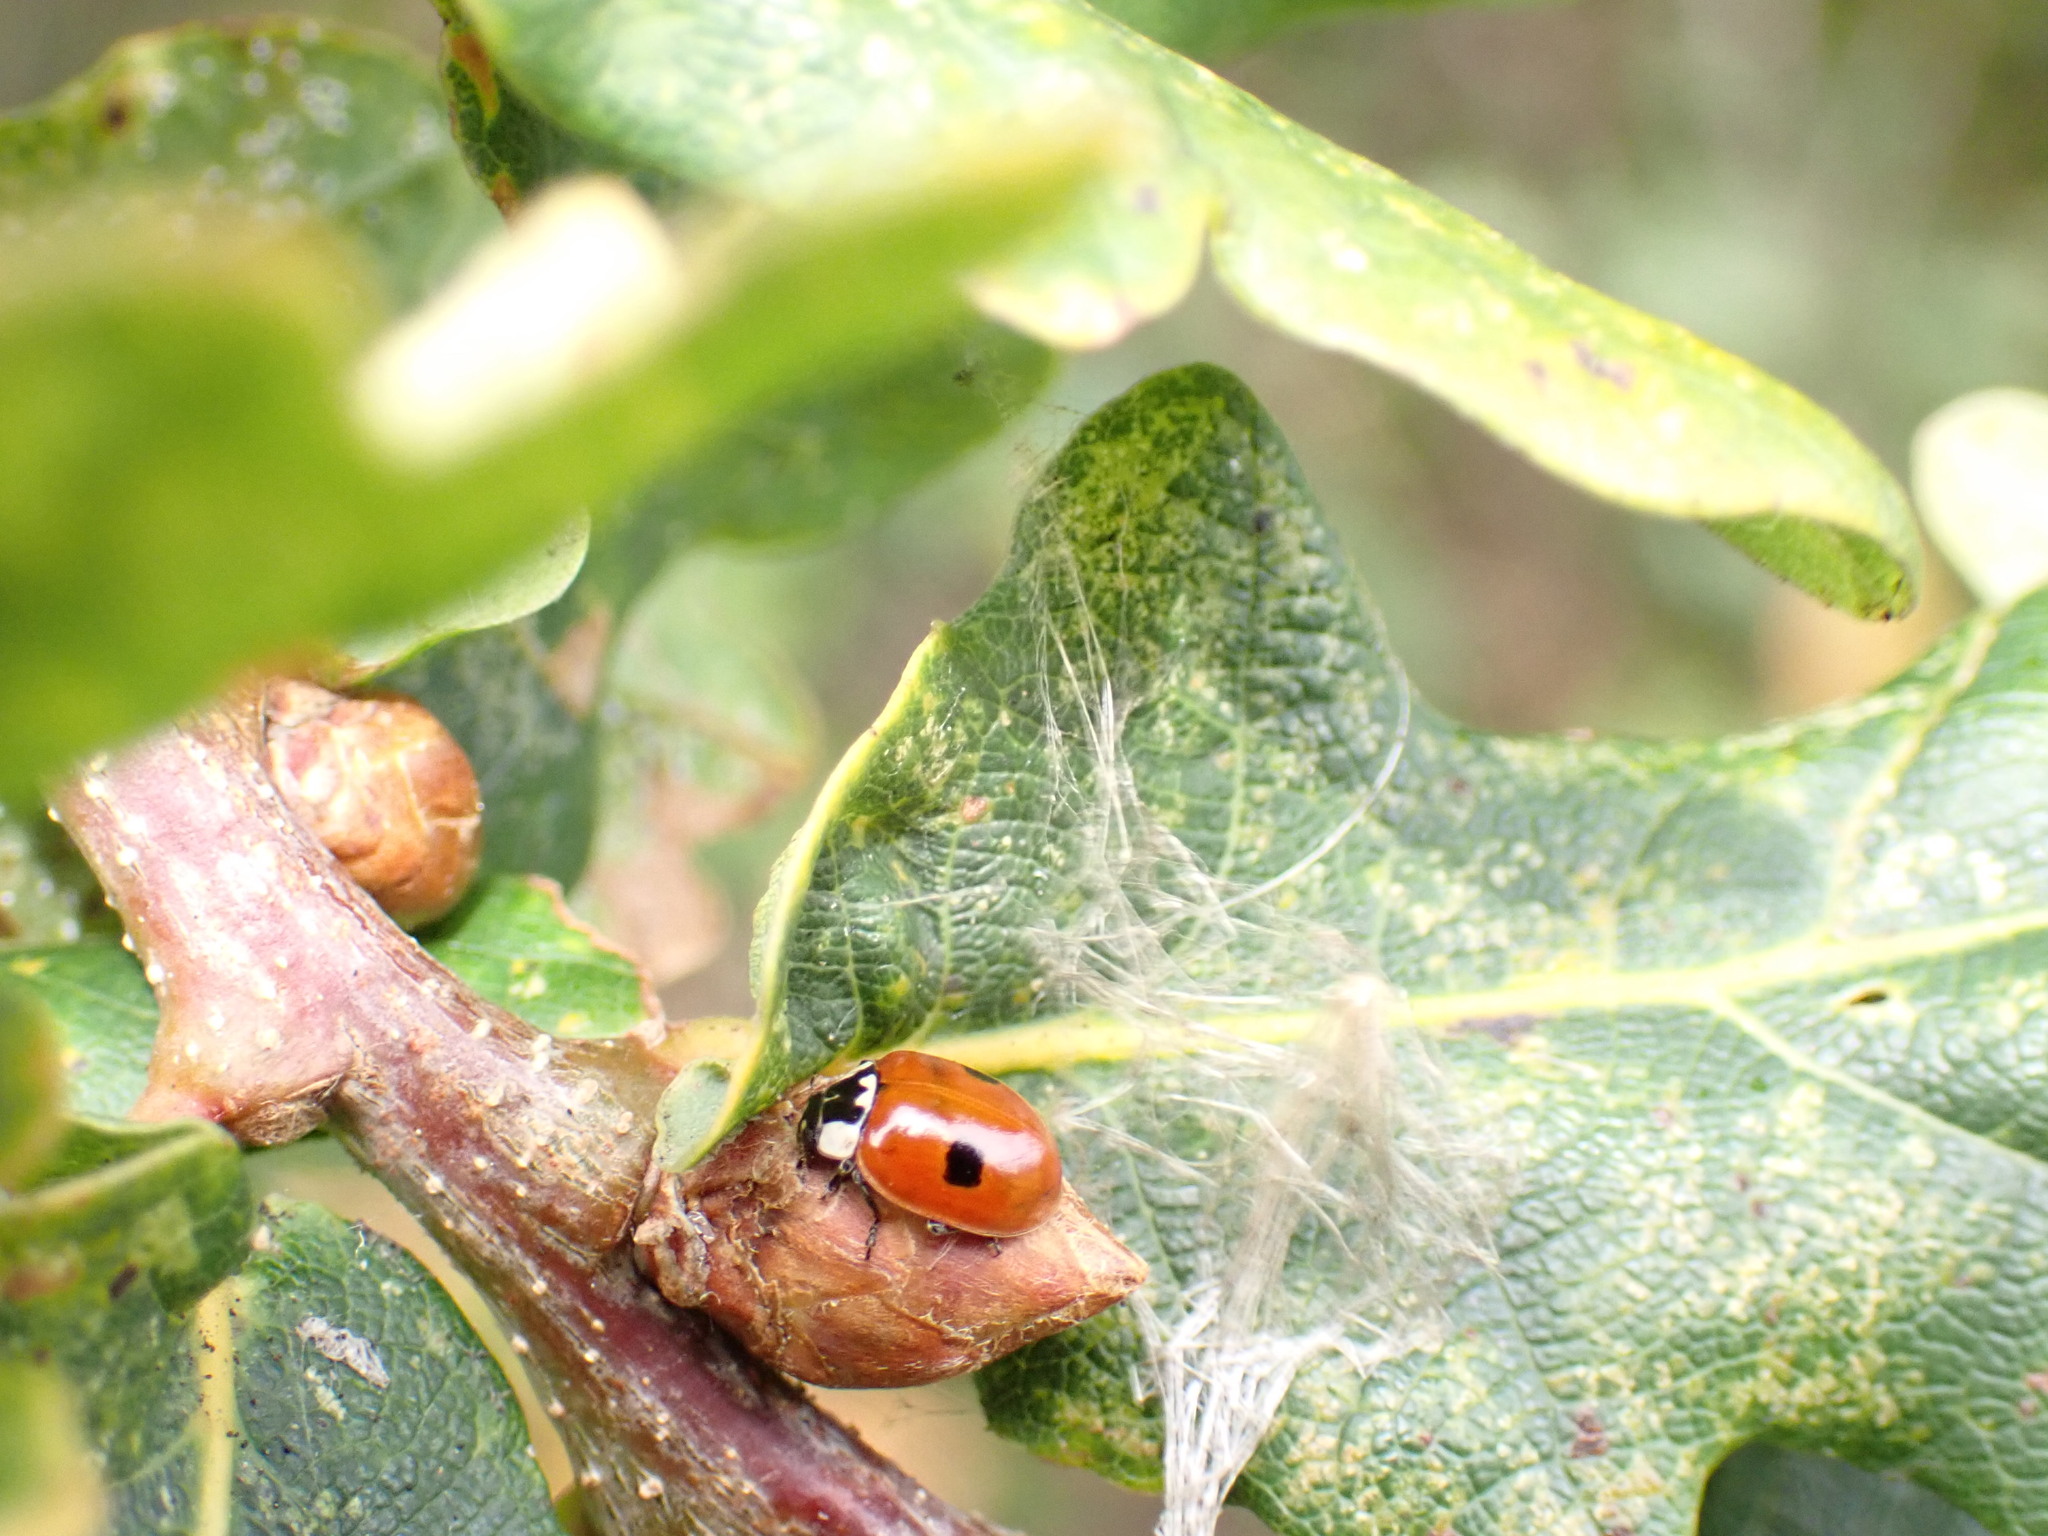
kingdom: Animalia
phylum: Arthropoda
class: Insecta
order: Coleoptera
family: Coccinellidae
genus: Adalia
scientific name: Adalia bipunctata
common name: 2-spot ladybird
